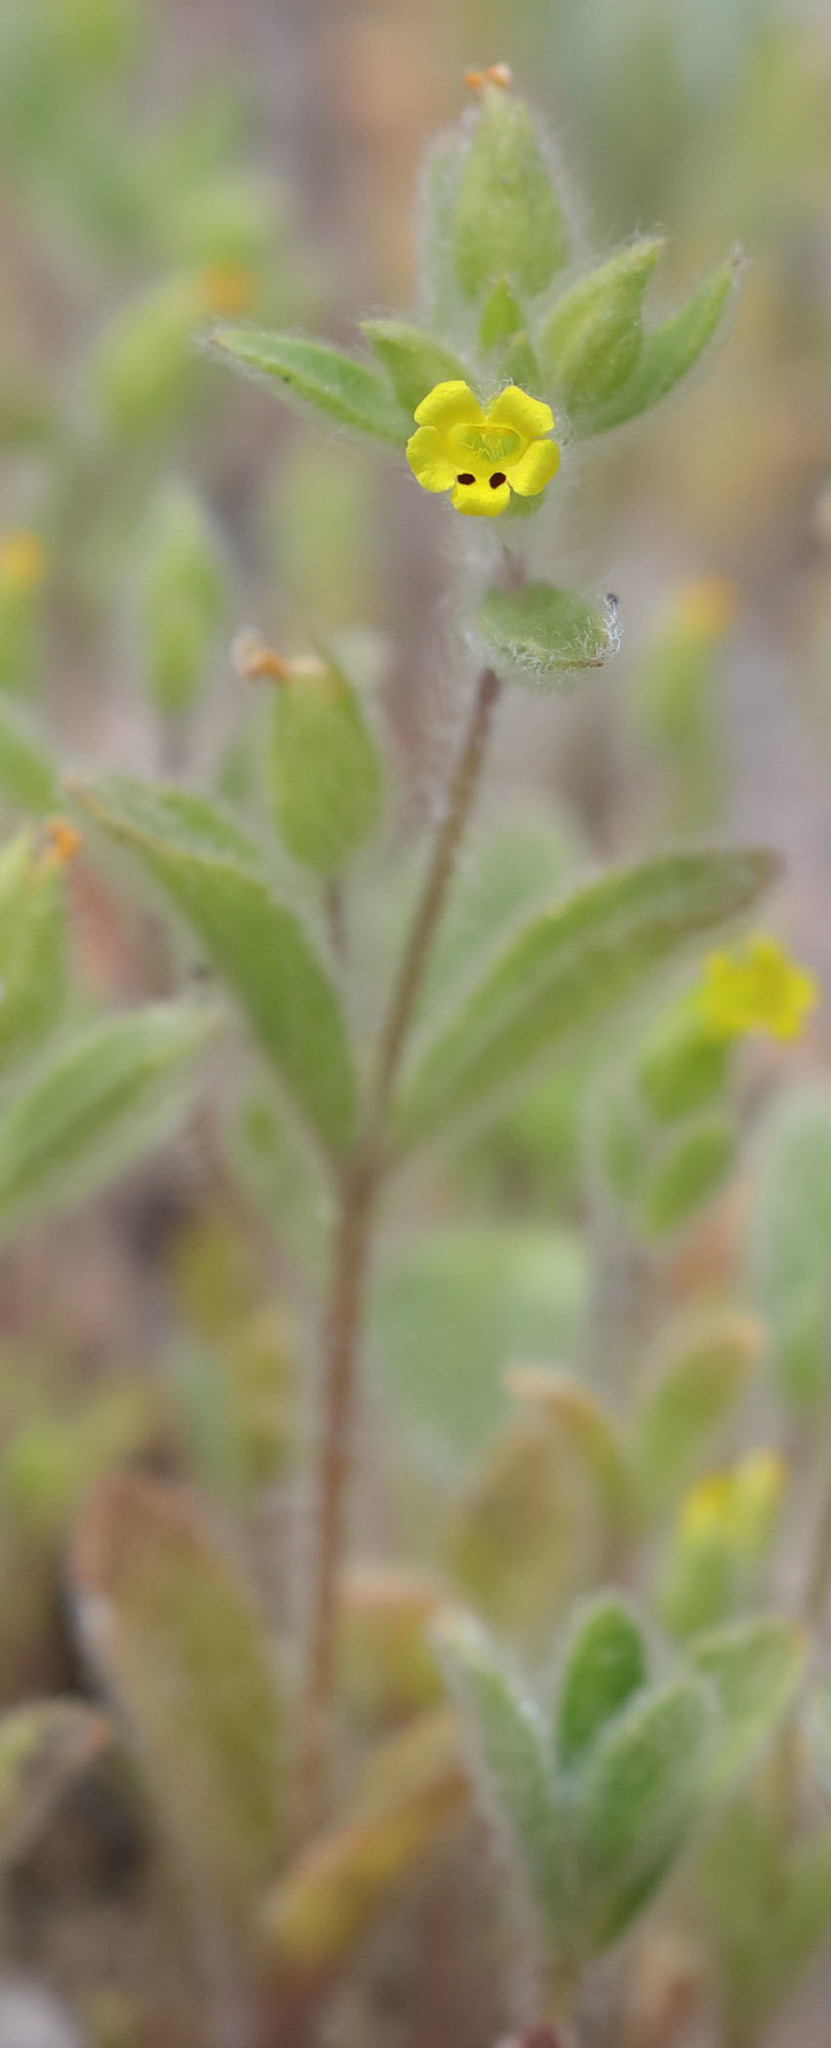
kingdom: Plantae
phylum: Tracheophyta
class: Magnoliopsida
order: Lamiales
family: Phrymaceae
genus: Mimetanthe
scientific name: Mimetanthe pilosa
